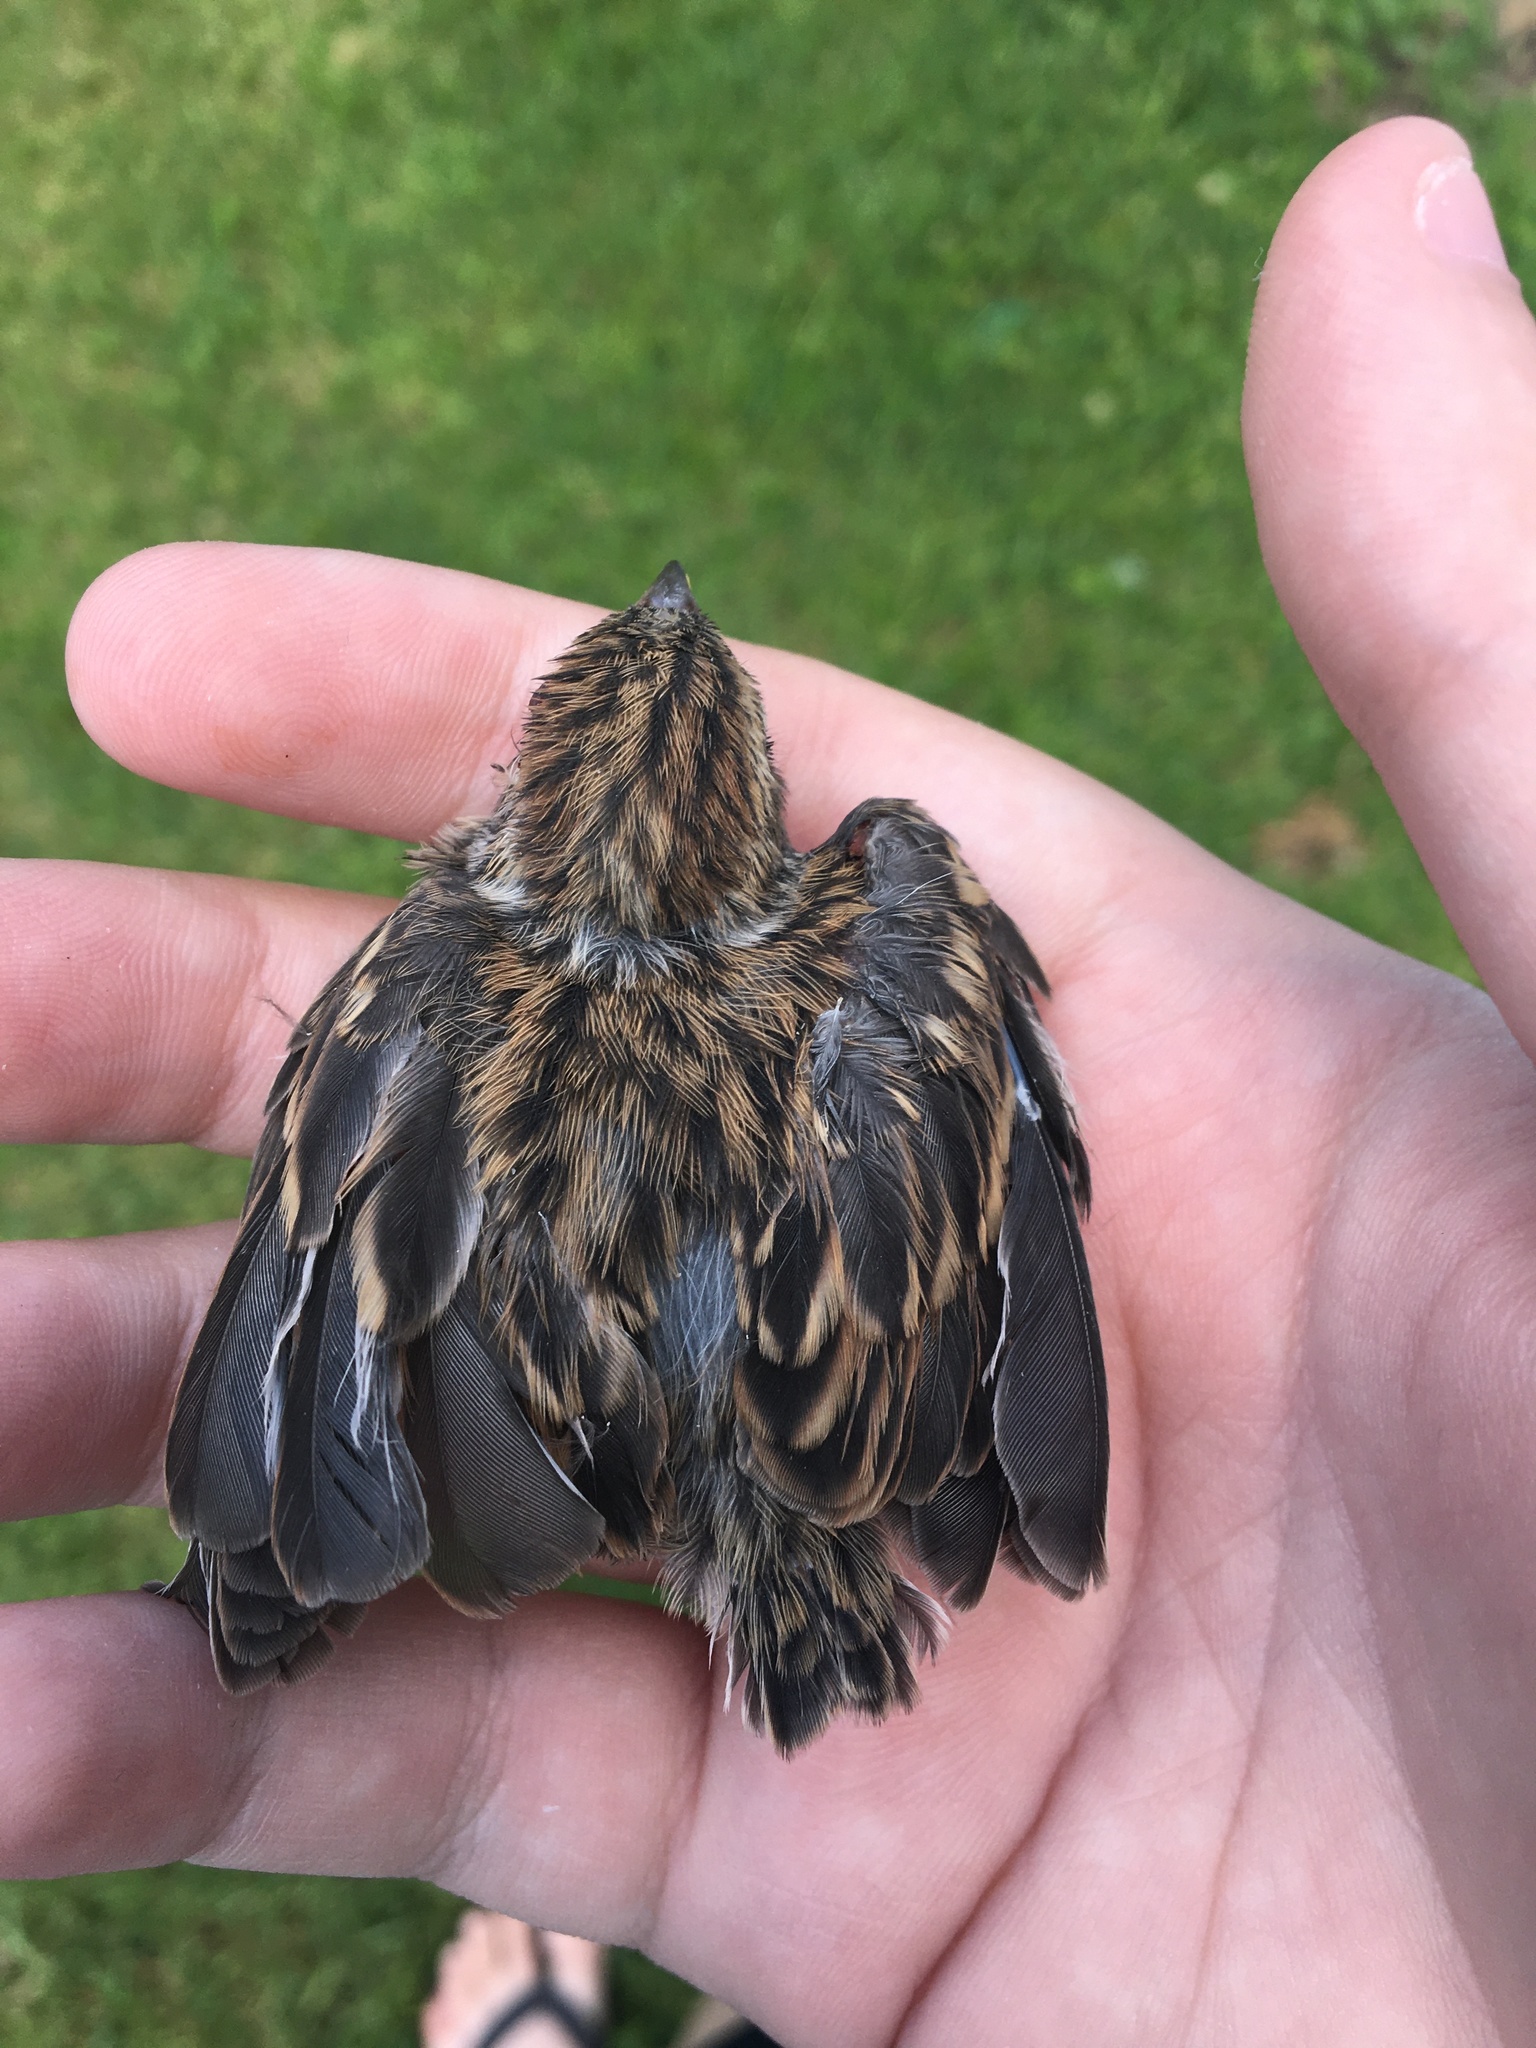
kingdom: Animalia
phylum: Chordata
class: Aves
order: Passeriformes
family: Passerellidae
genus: Spizella
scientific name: Spizella passerina
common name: Chipping sparrow
